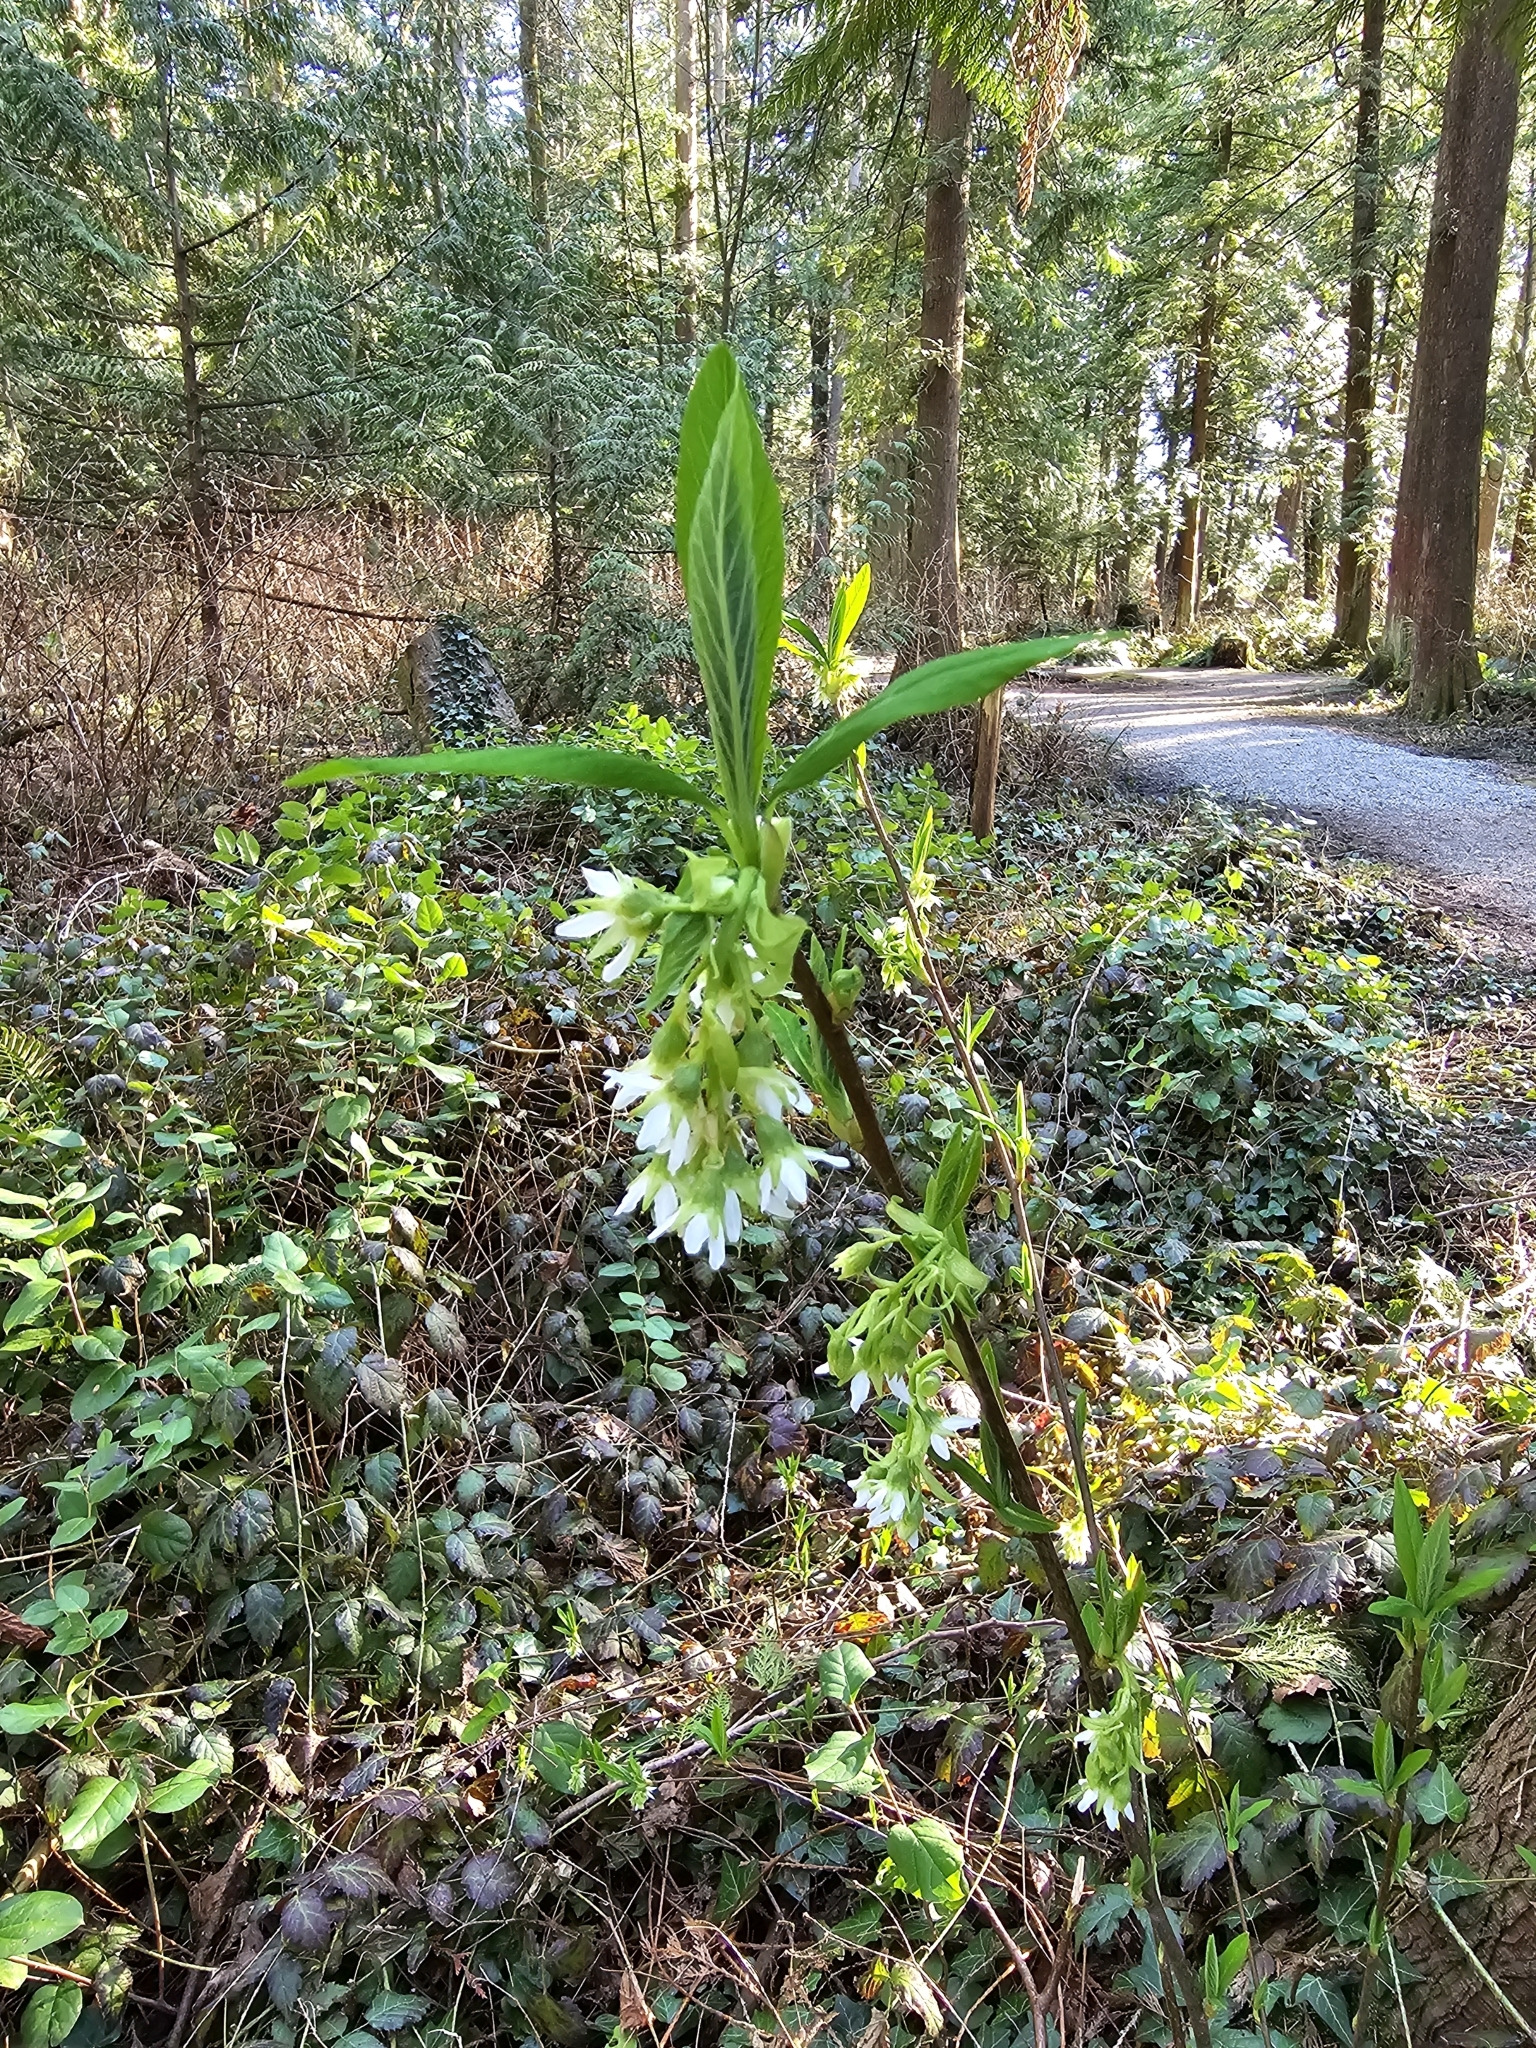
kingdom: Plantae
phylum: Tracheophyta
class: Magnoliopsida
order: Rosales
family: Rosaceae
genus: Oemleria
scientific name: Oemleria cerasiformis
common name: Osoberry
